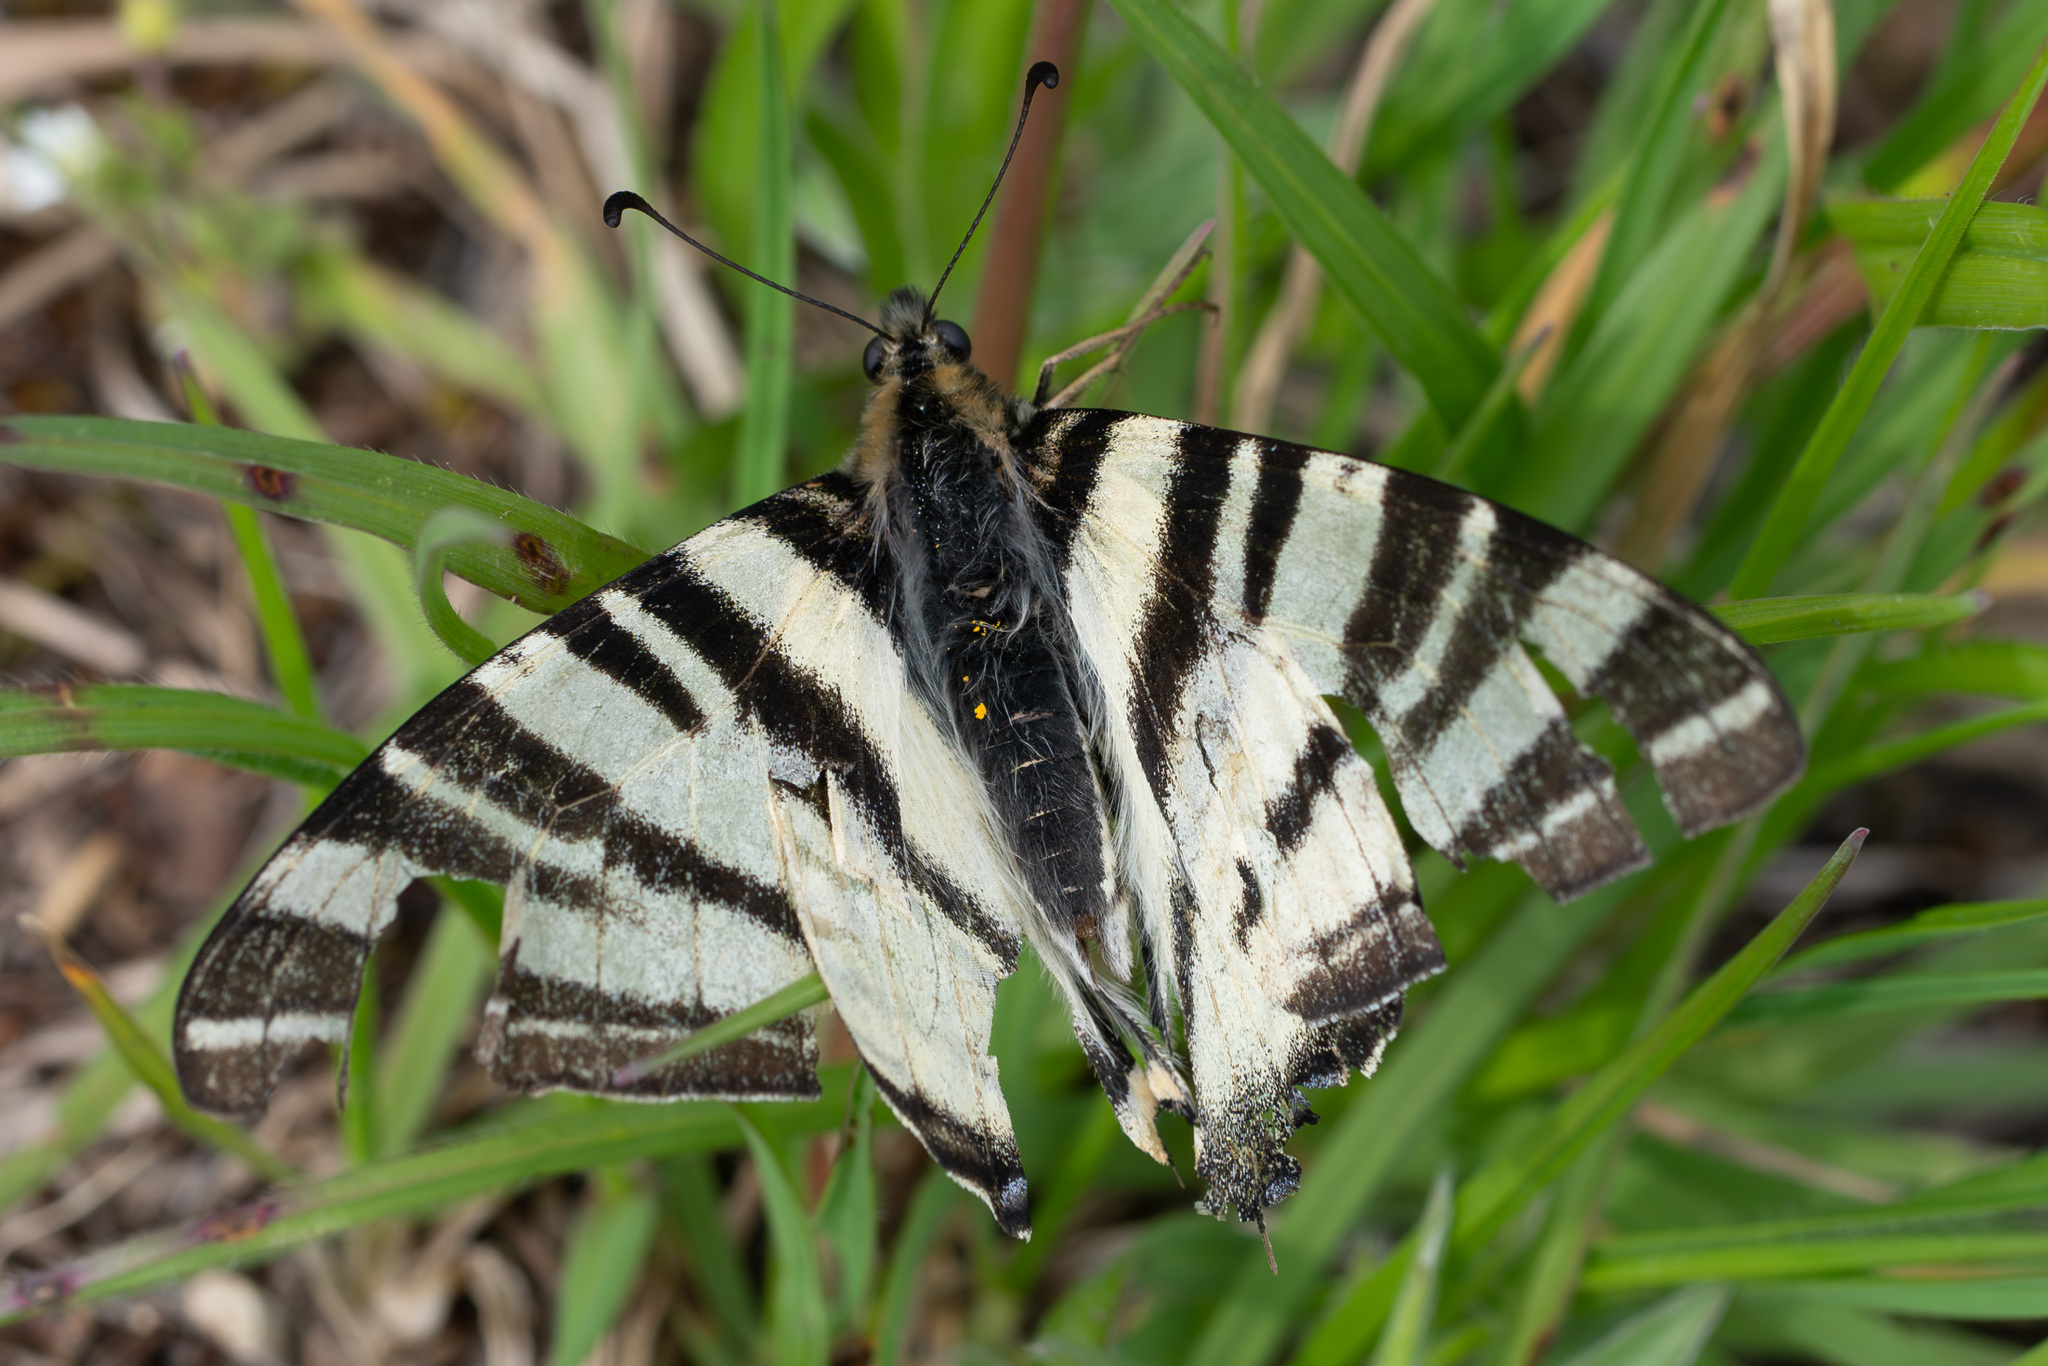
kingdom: Animalia
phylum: Arthropoda
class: Insecta
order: Lepidoptera
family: Papilionidae
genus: Iphiclides
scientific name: Iphiclides podalirius
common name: Scarce swallowtail
